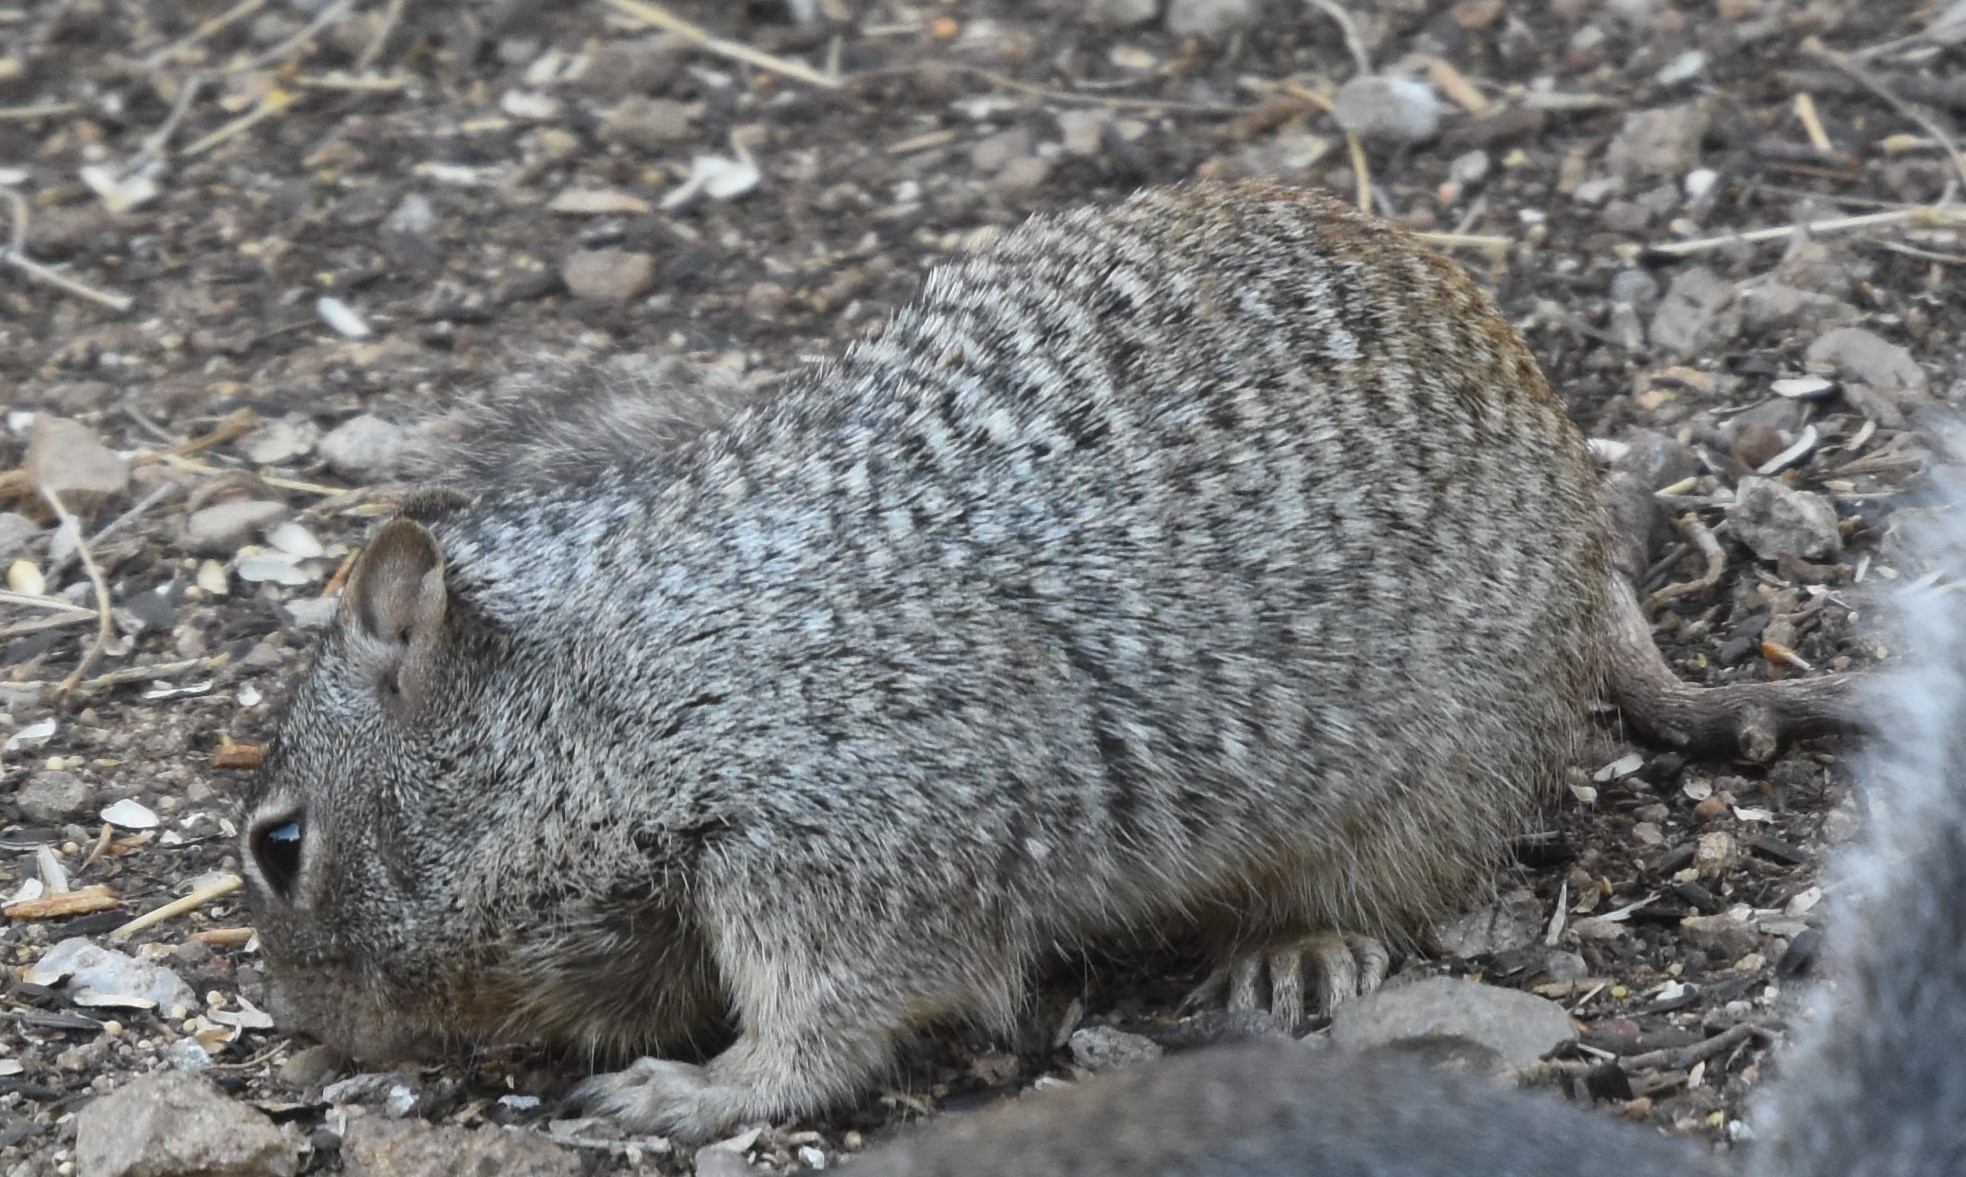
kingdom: Animalia
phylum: Chordata
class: Mammalia
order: Rodentia
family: Sciuridae
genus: Otospermophilus
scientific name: Otospermophilus variegatus
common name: Rock squirrel
